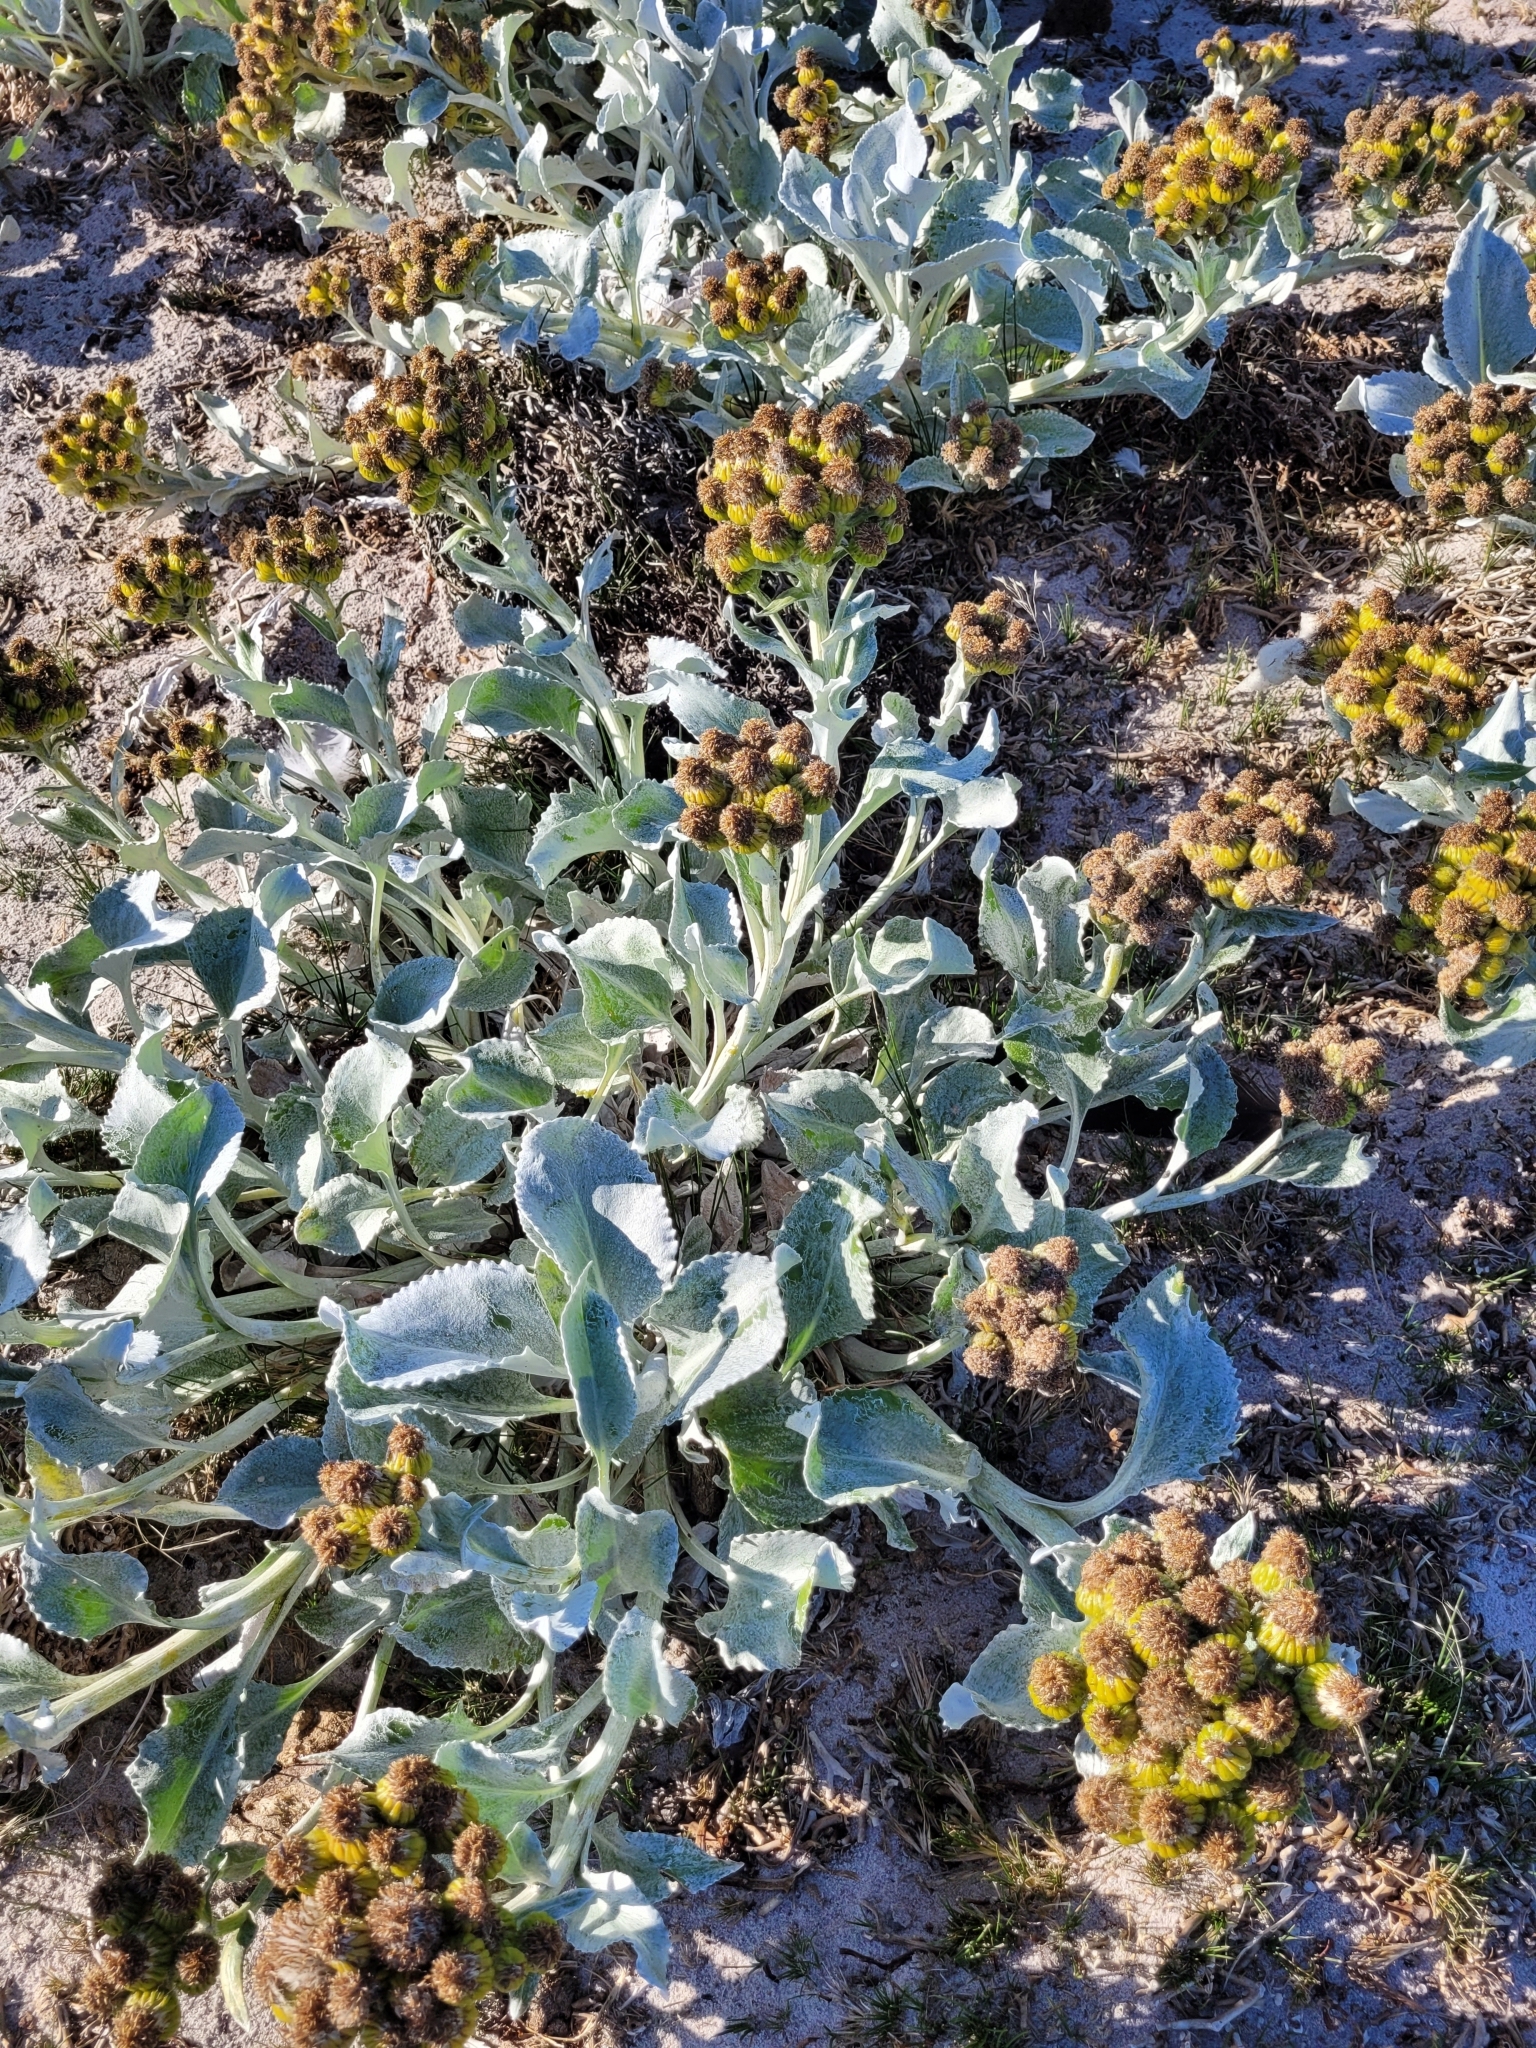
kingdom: Plantae
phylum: Tracheophyta
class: Magnoliopsida
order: Asterales
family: Asteraceae
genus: Senecio
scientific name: Senecio candidans
